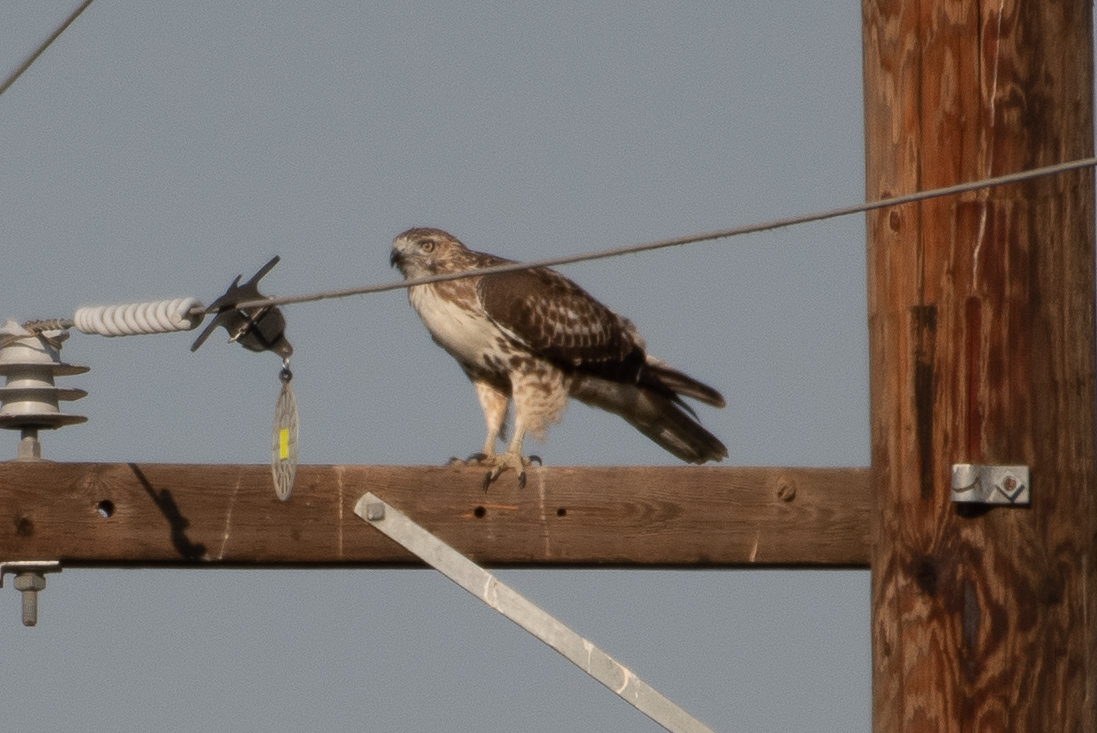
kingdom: Animalia
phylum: Chordata
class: Aves
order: Accipitriformes
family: Accipitridae
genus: Buteo
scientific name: Buteo jamaicensis
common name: Red-tailed hawk
